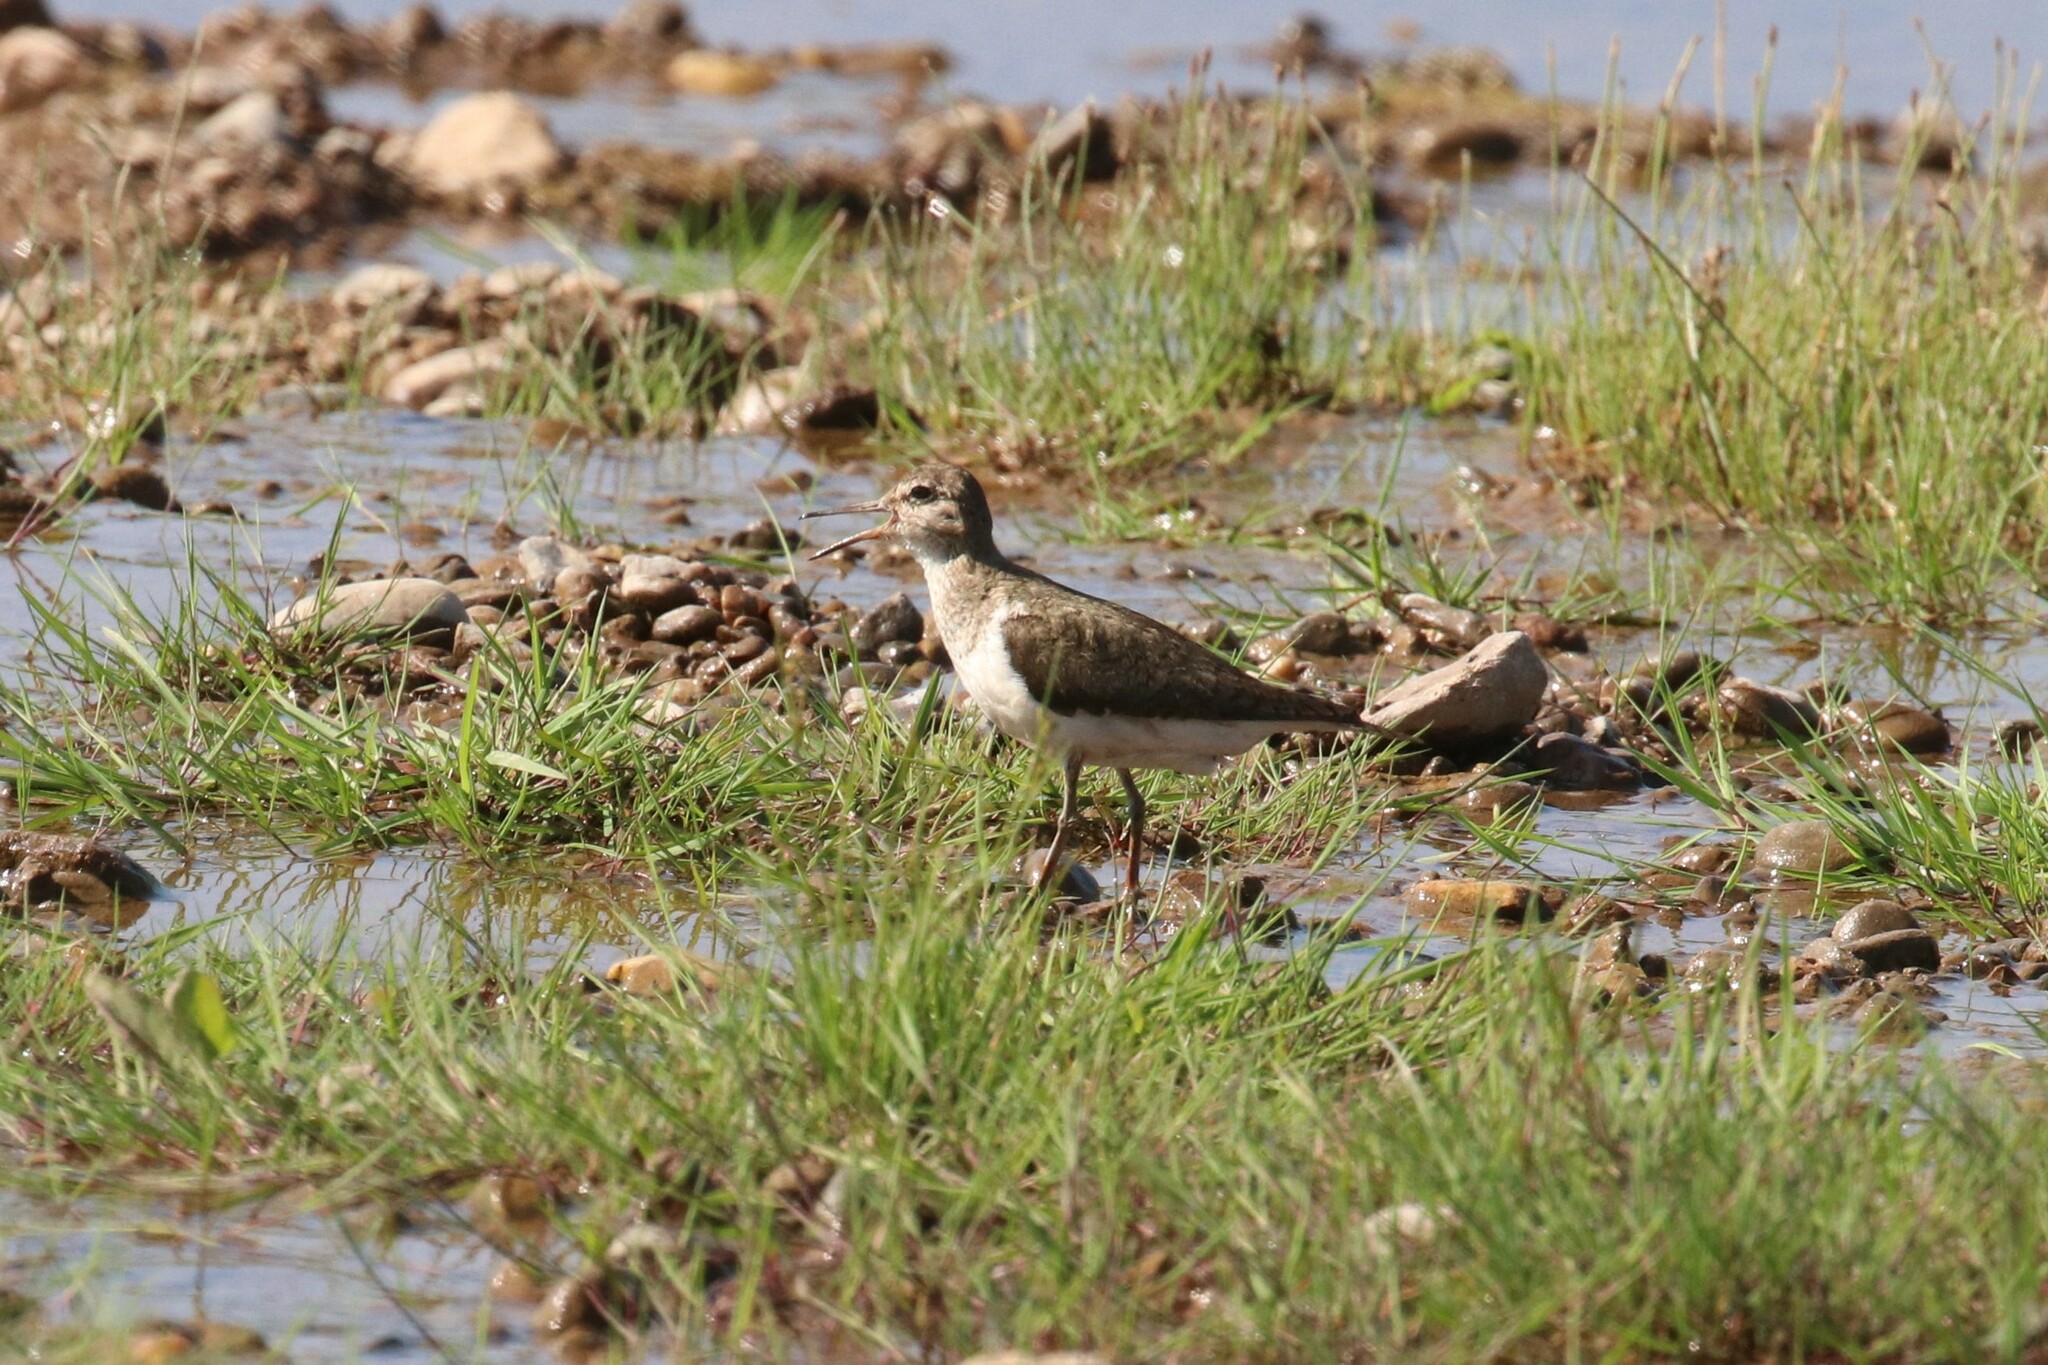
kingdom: Animalia
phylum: Chordata
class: Aves
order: Charadriiformes
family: Scolopacidae
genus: Actitis
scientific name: Actitis hypoleucos
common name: Common sandpiper
